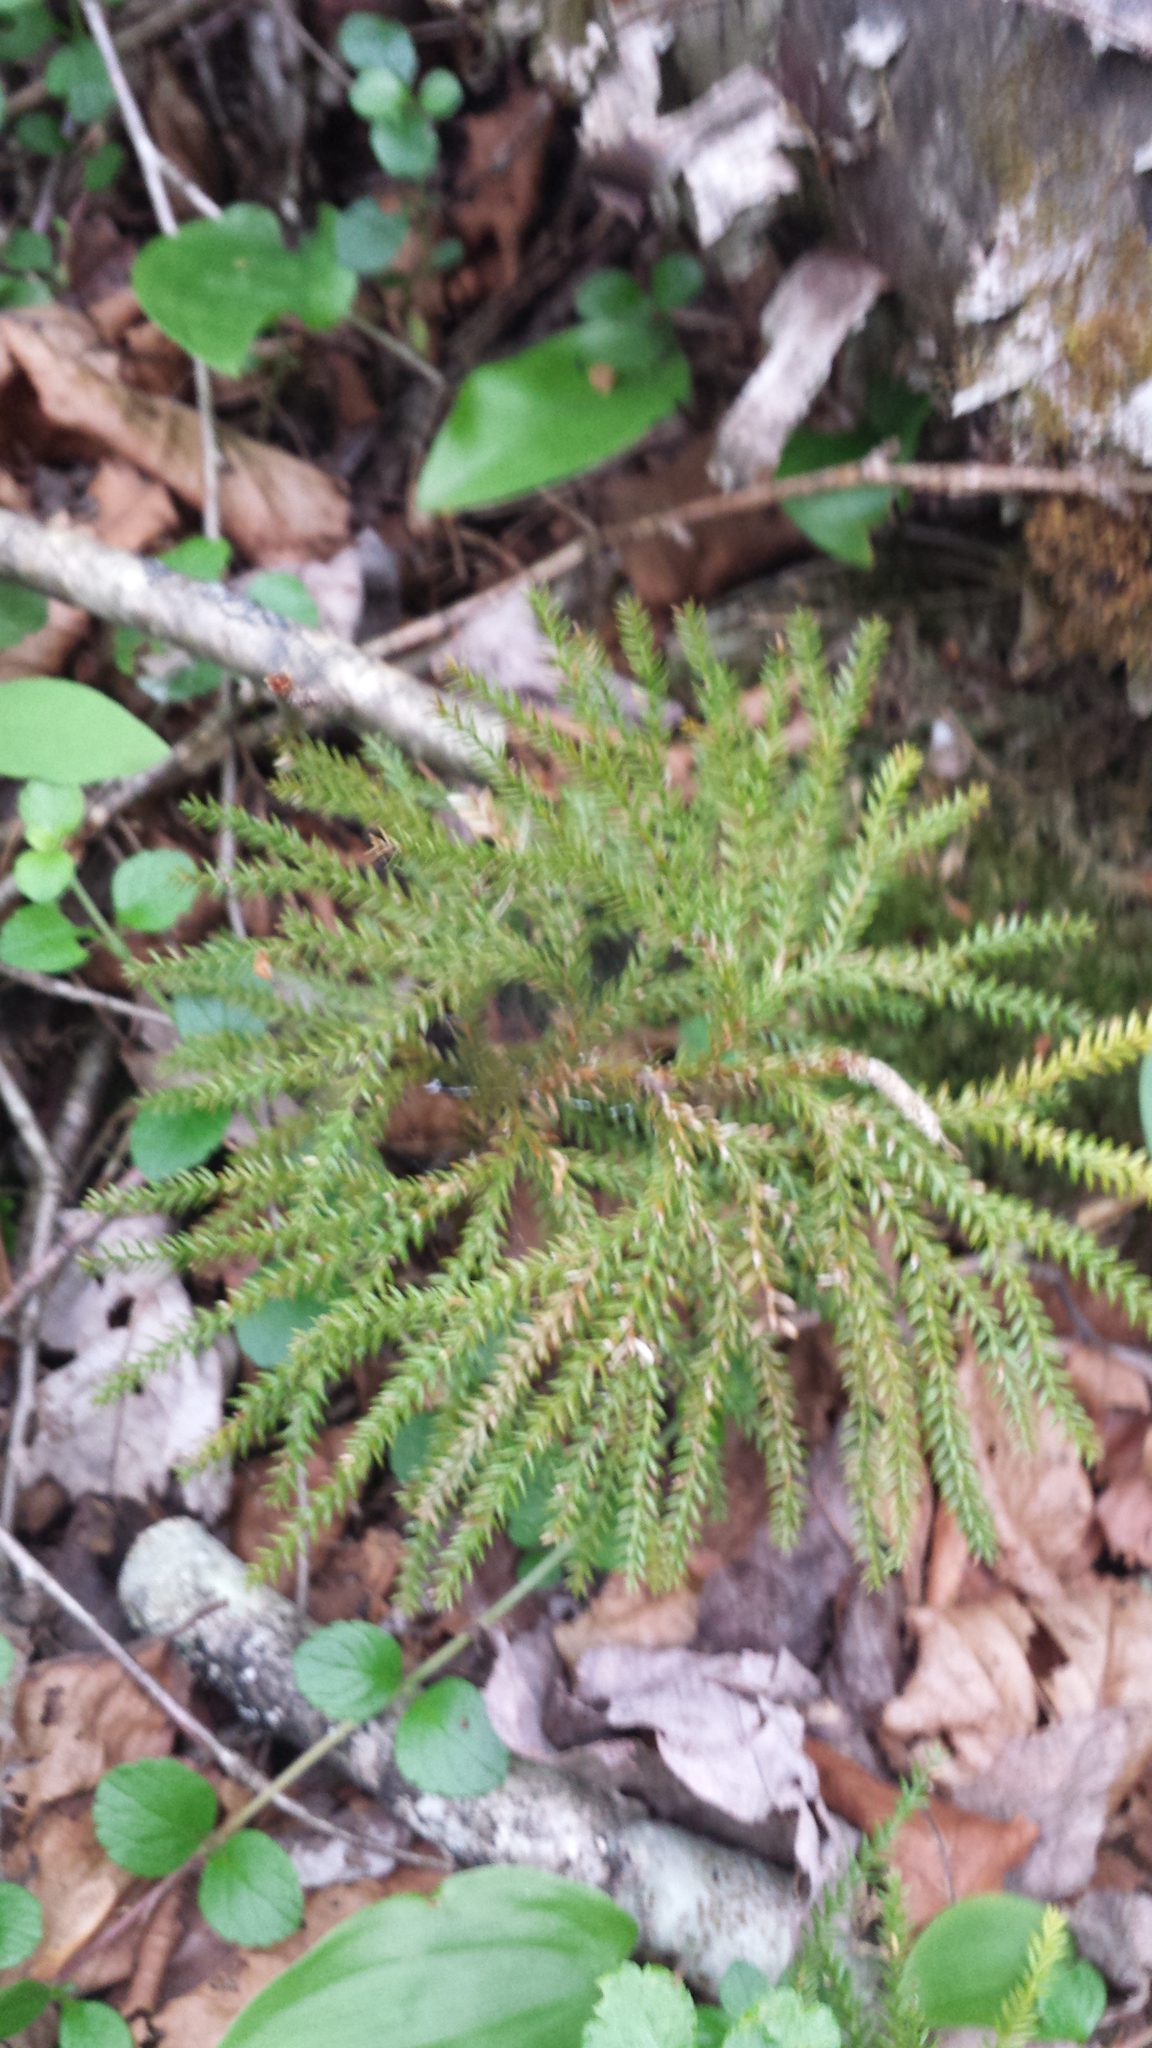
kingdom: Plantae
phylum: Tracheophyta
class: Lycopodiopsida
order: Lycopodiales
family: Lycopodiaceae
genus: Dendrolycopodium
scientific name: Dendrolycopodium obscurum
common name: Common ground-pine
